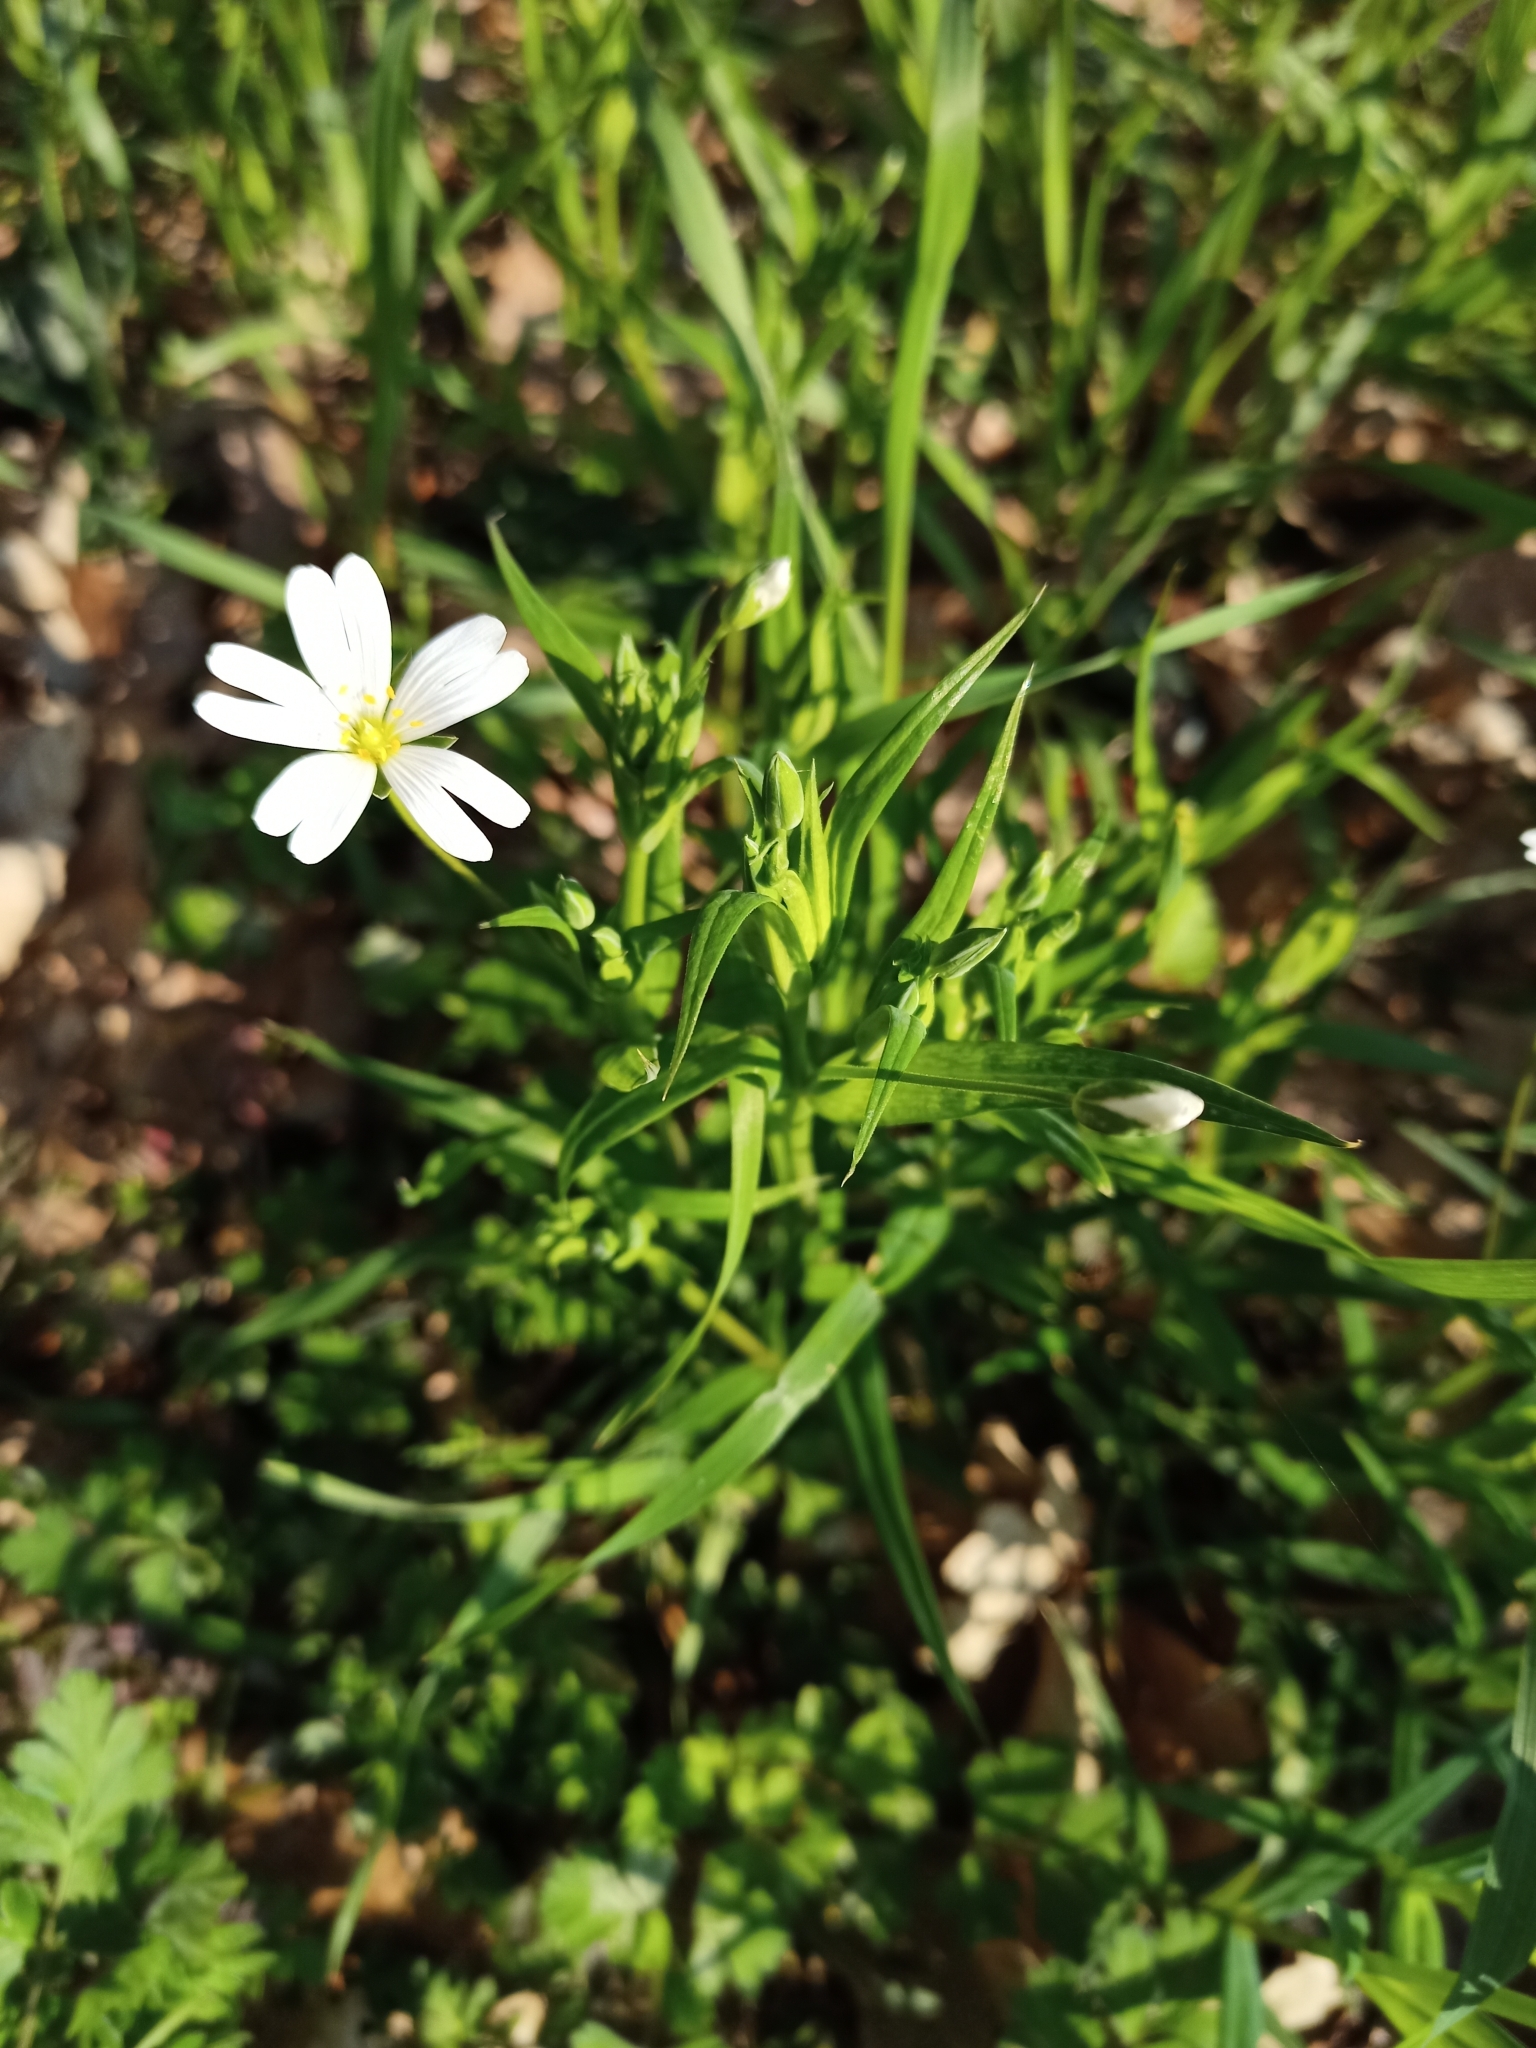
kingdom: Plantae
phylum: Tracheophyta
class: Magnoliopsida
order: Caryophyllales
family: Caryophyllaceae
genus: Rabelera
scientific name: Rabelera holostea
